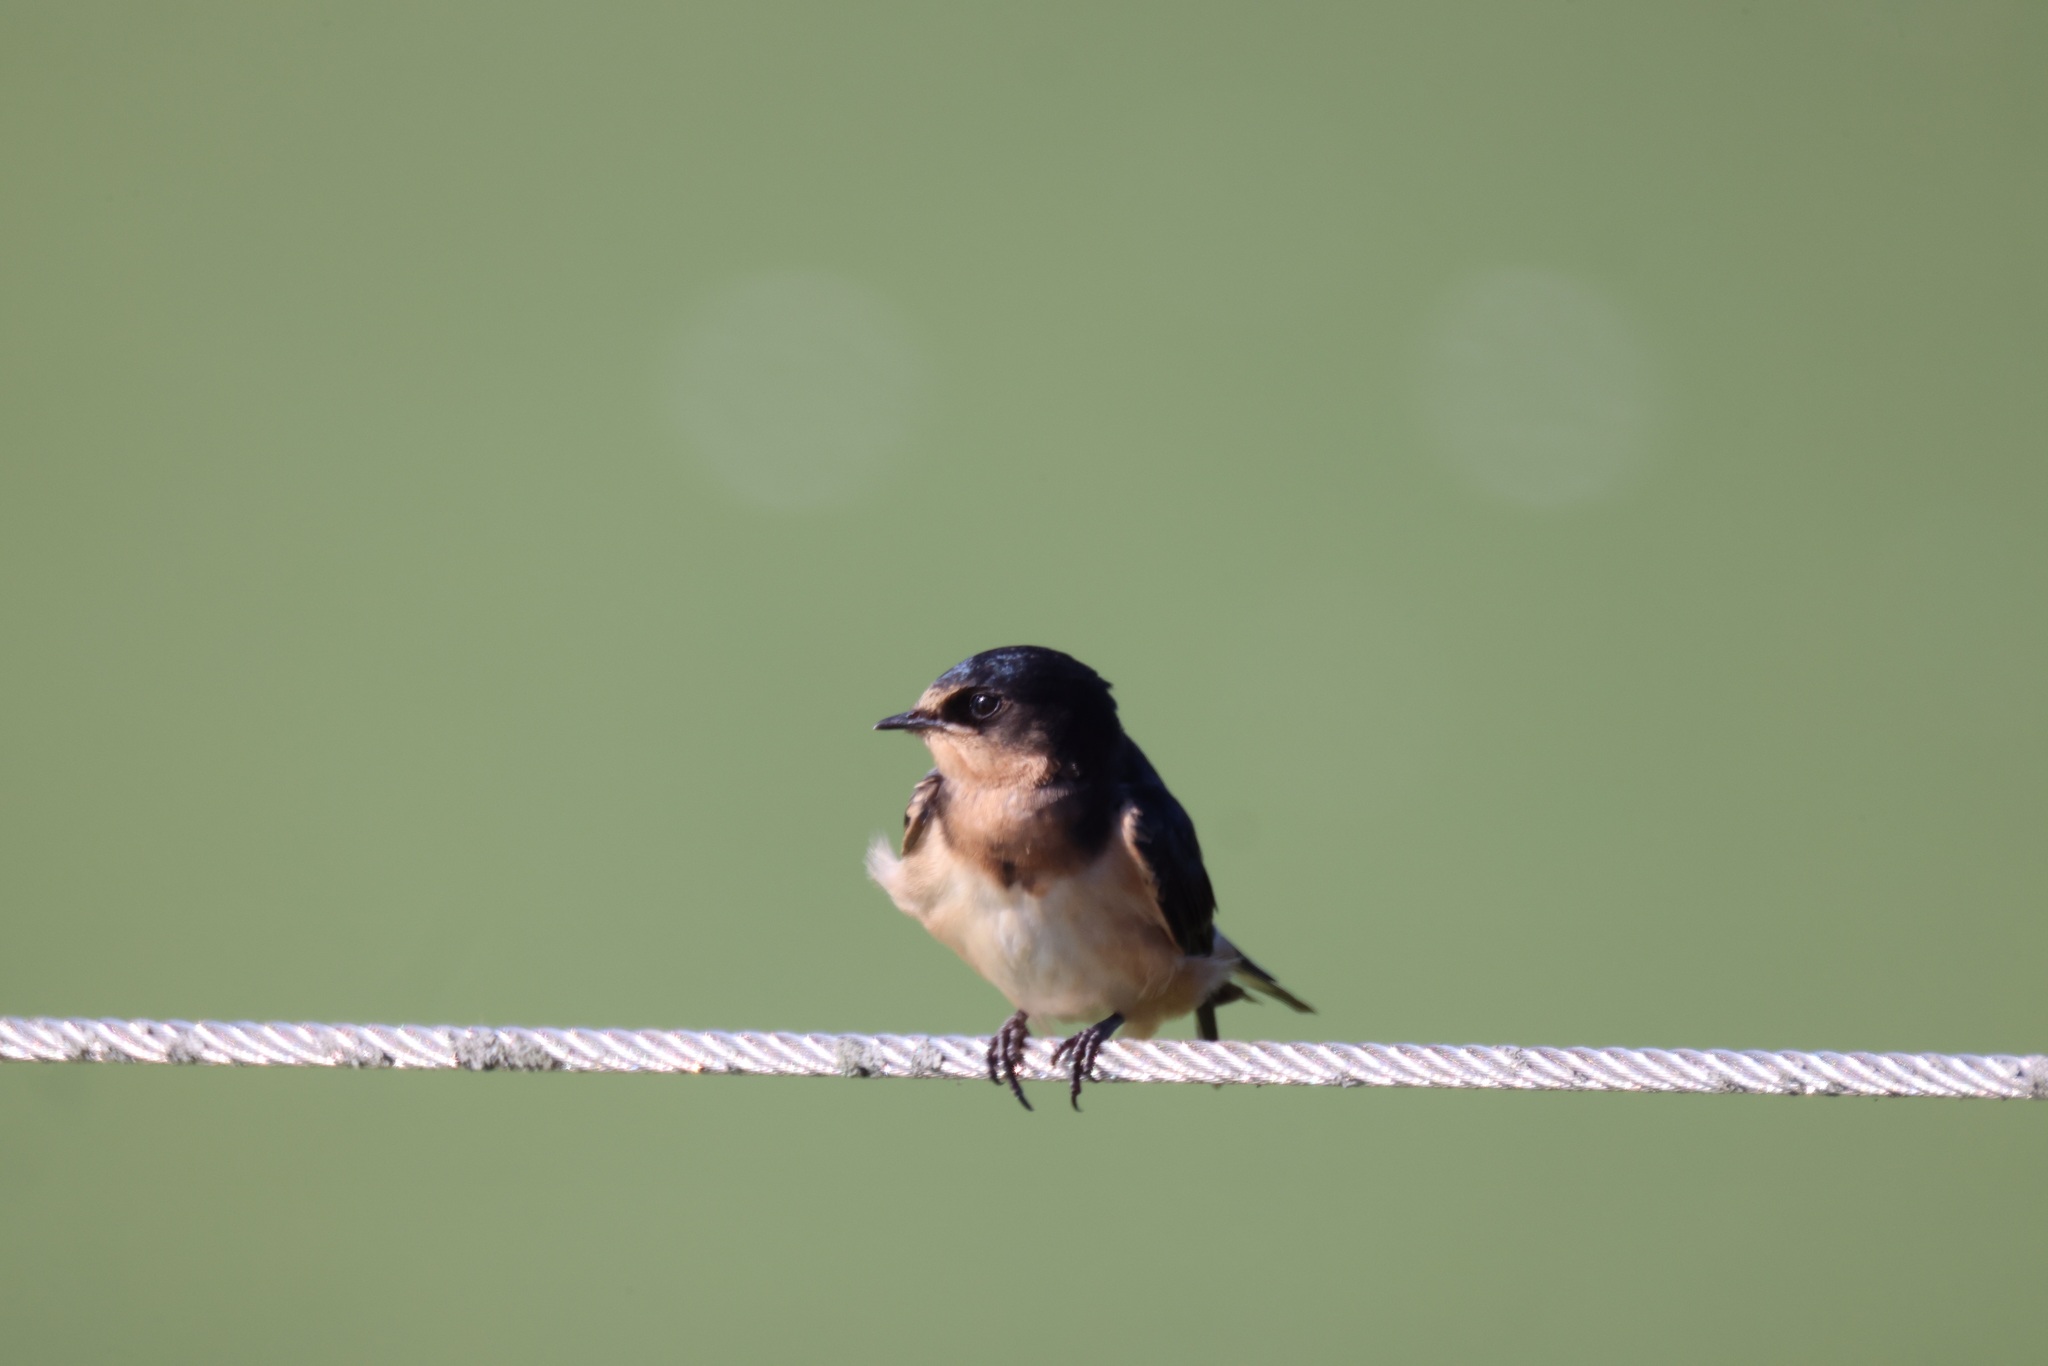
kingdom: Animalia
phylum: Chordata
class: Aves
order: Passeriformes
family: Hirundinidae
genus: Hirundo
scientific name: Hirundo rustica
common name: Barn swallow
